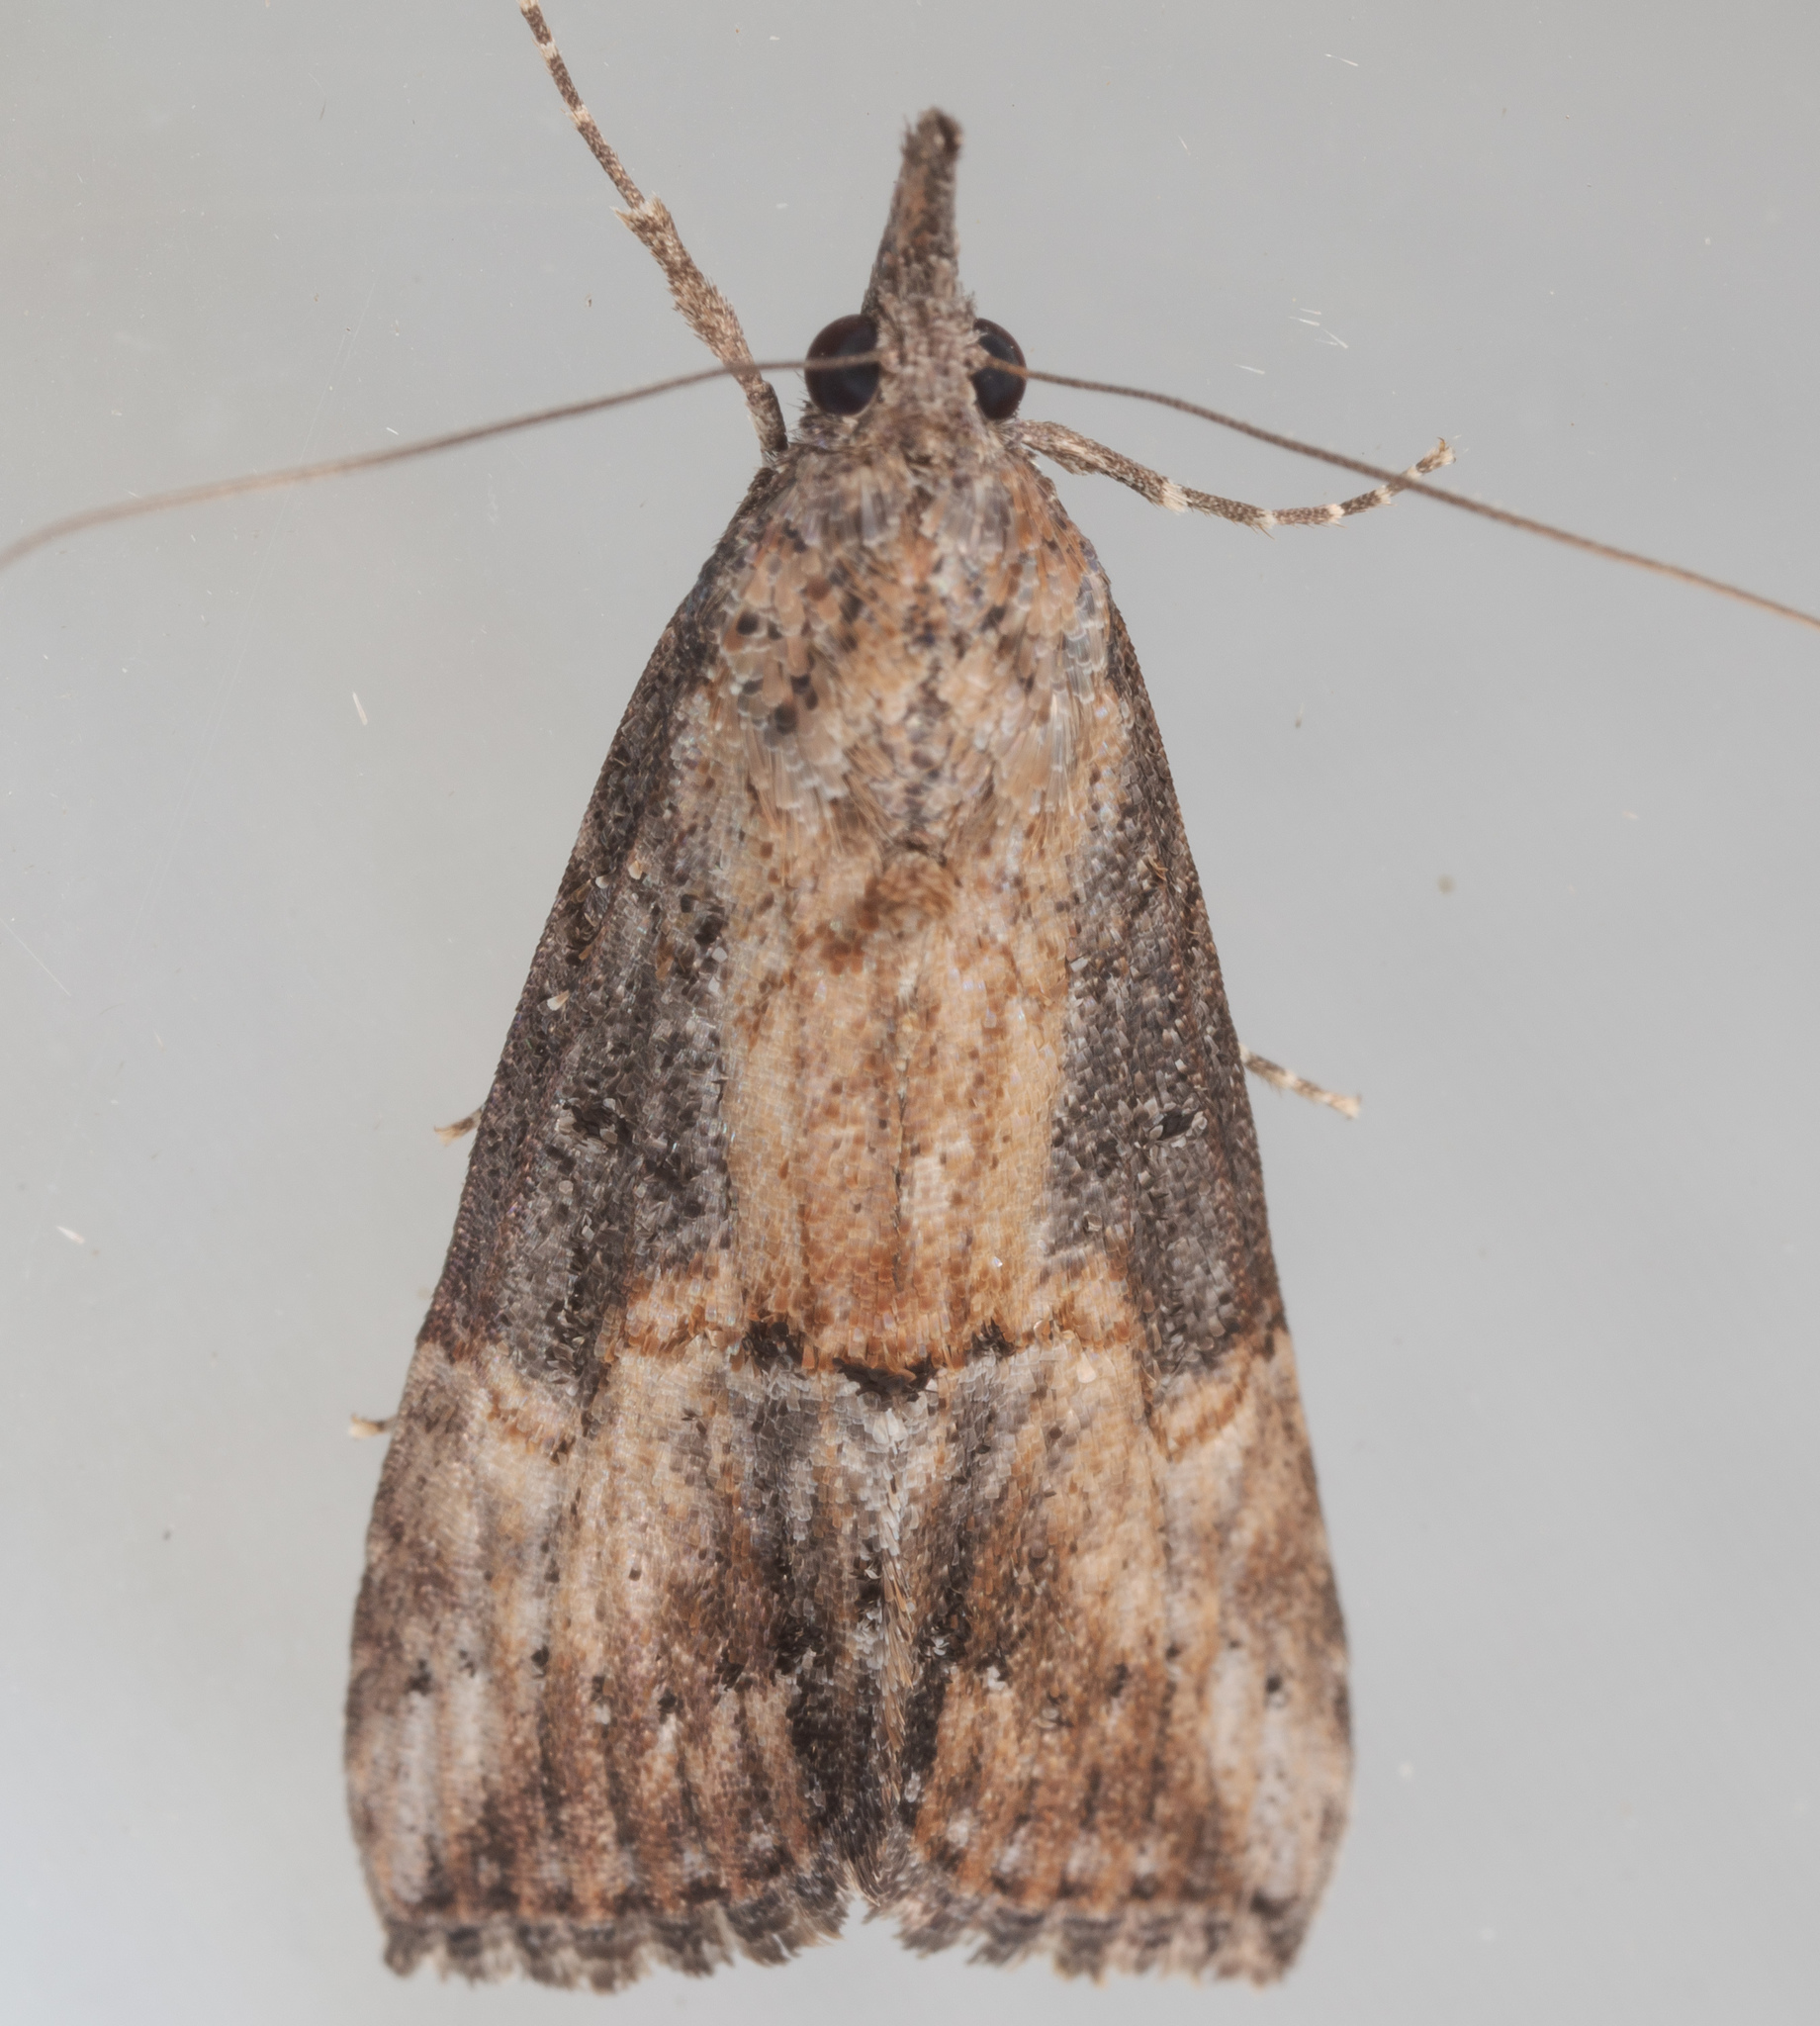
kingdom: Animalia
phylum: Arthropoda
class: Insecta
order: Lepidoptera
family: Erebidae
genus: Hypena
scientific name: Hypena scabra
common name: Green cloverworm
